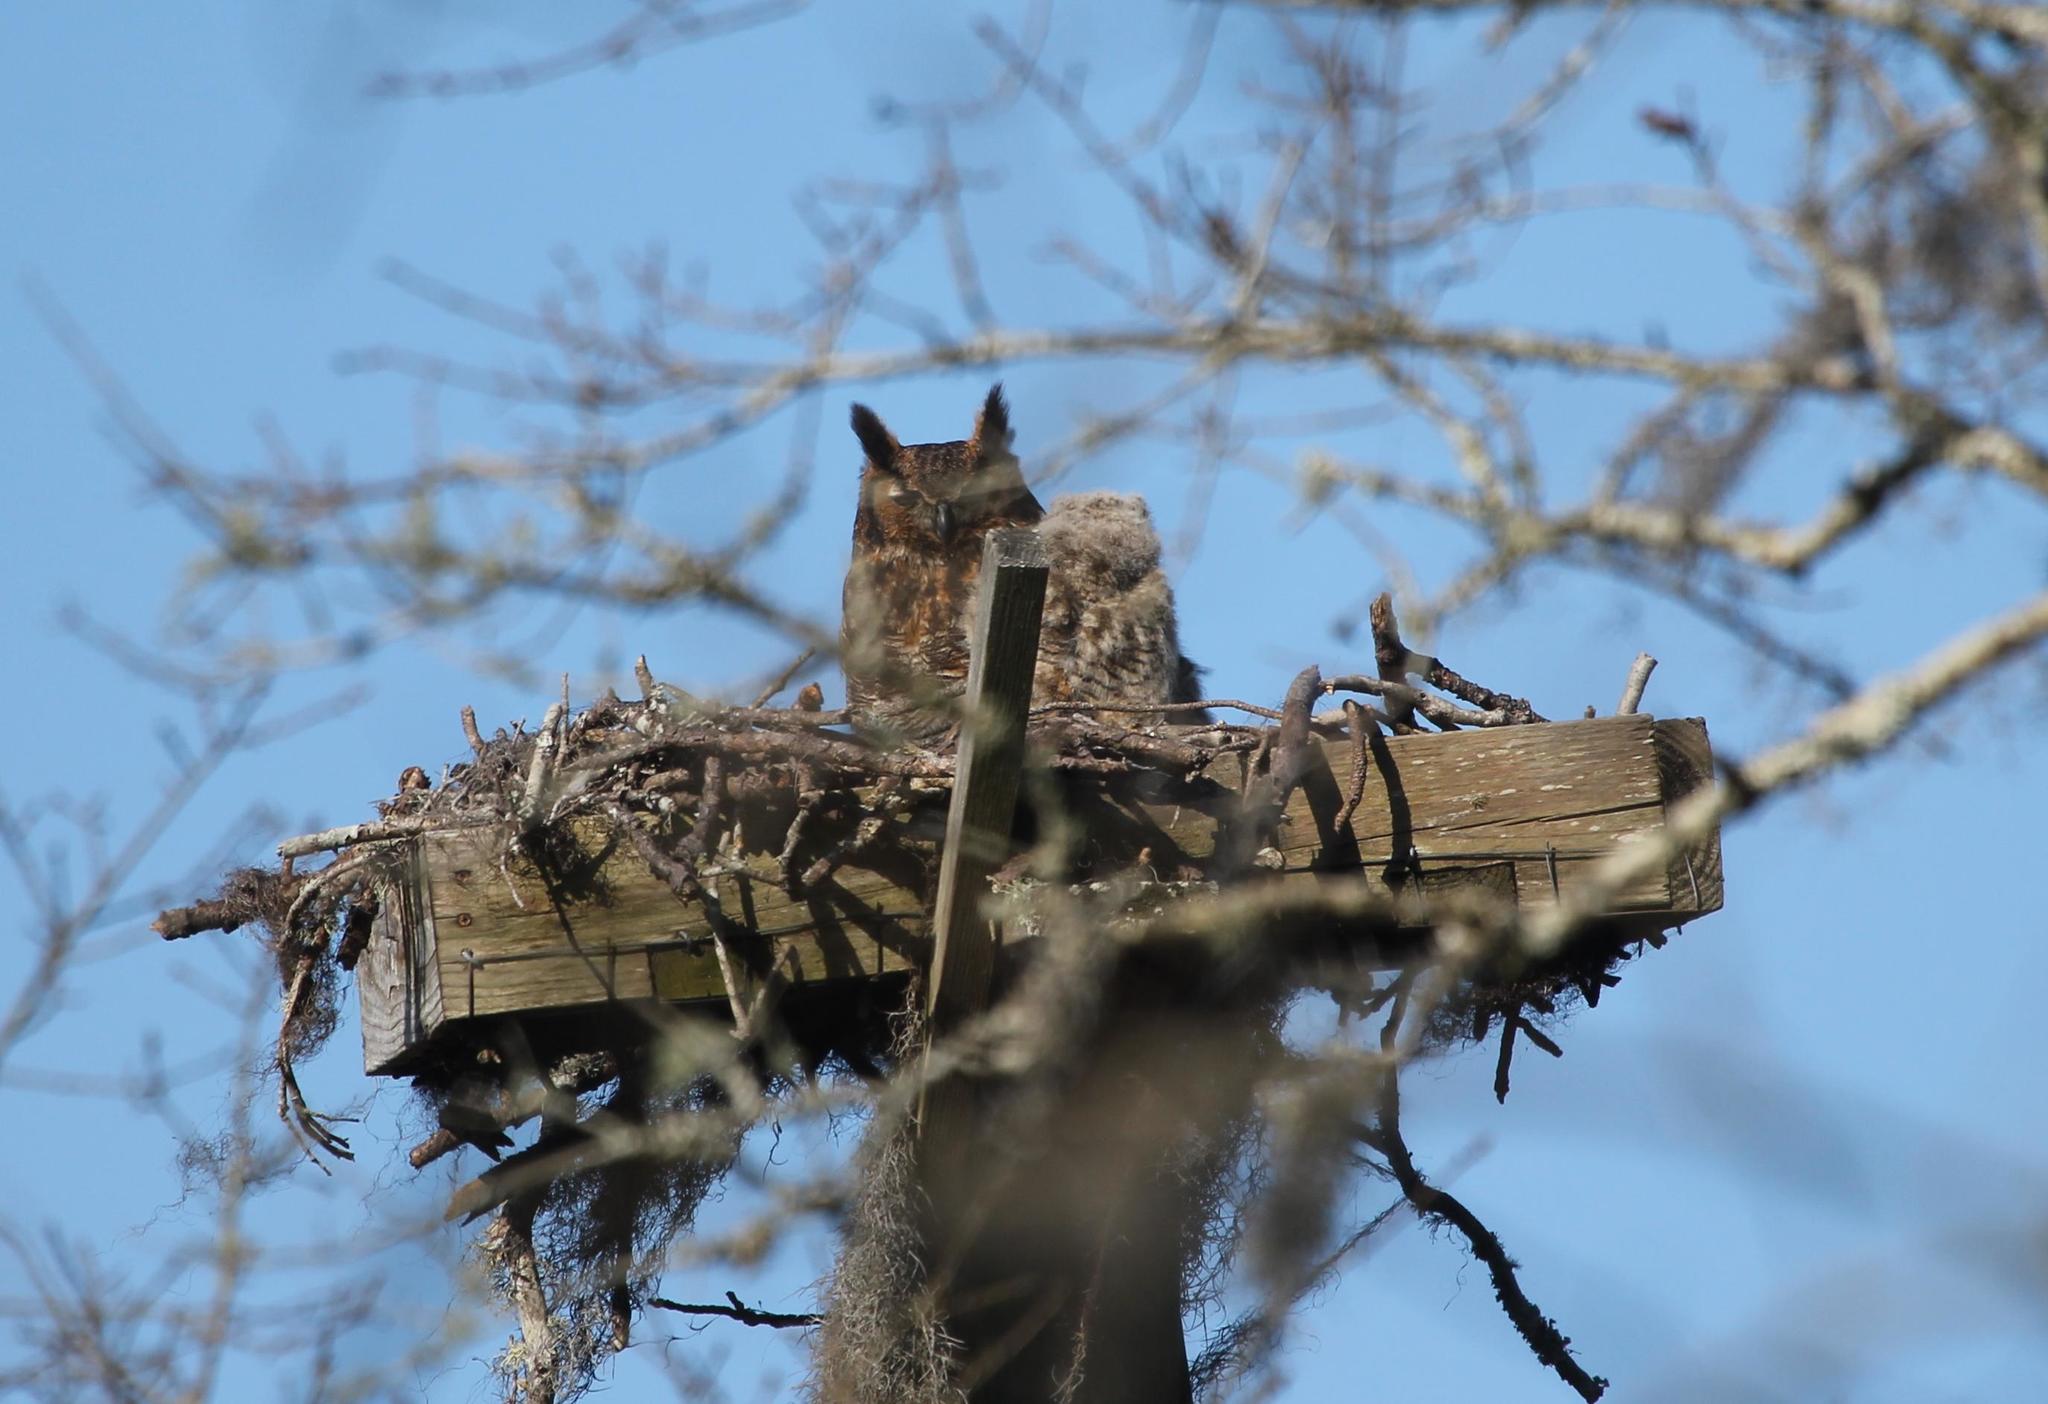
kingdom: Animalia
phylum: Chordata
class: Aves
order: Strigiformes
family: Strigidae
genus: Bubo
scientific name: Bubo virginianus
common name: Great horned owl
